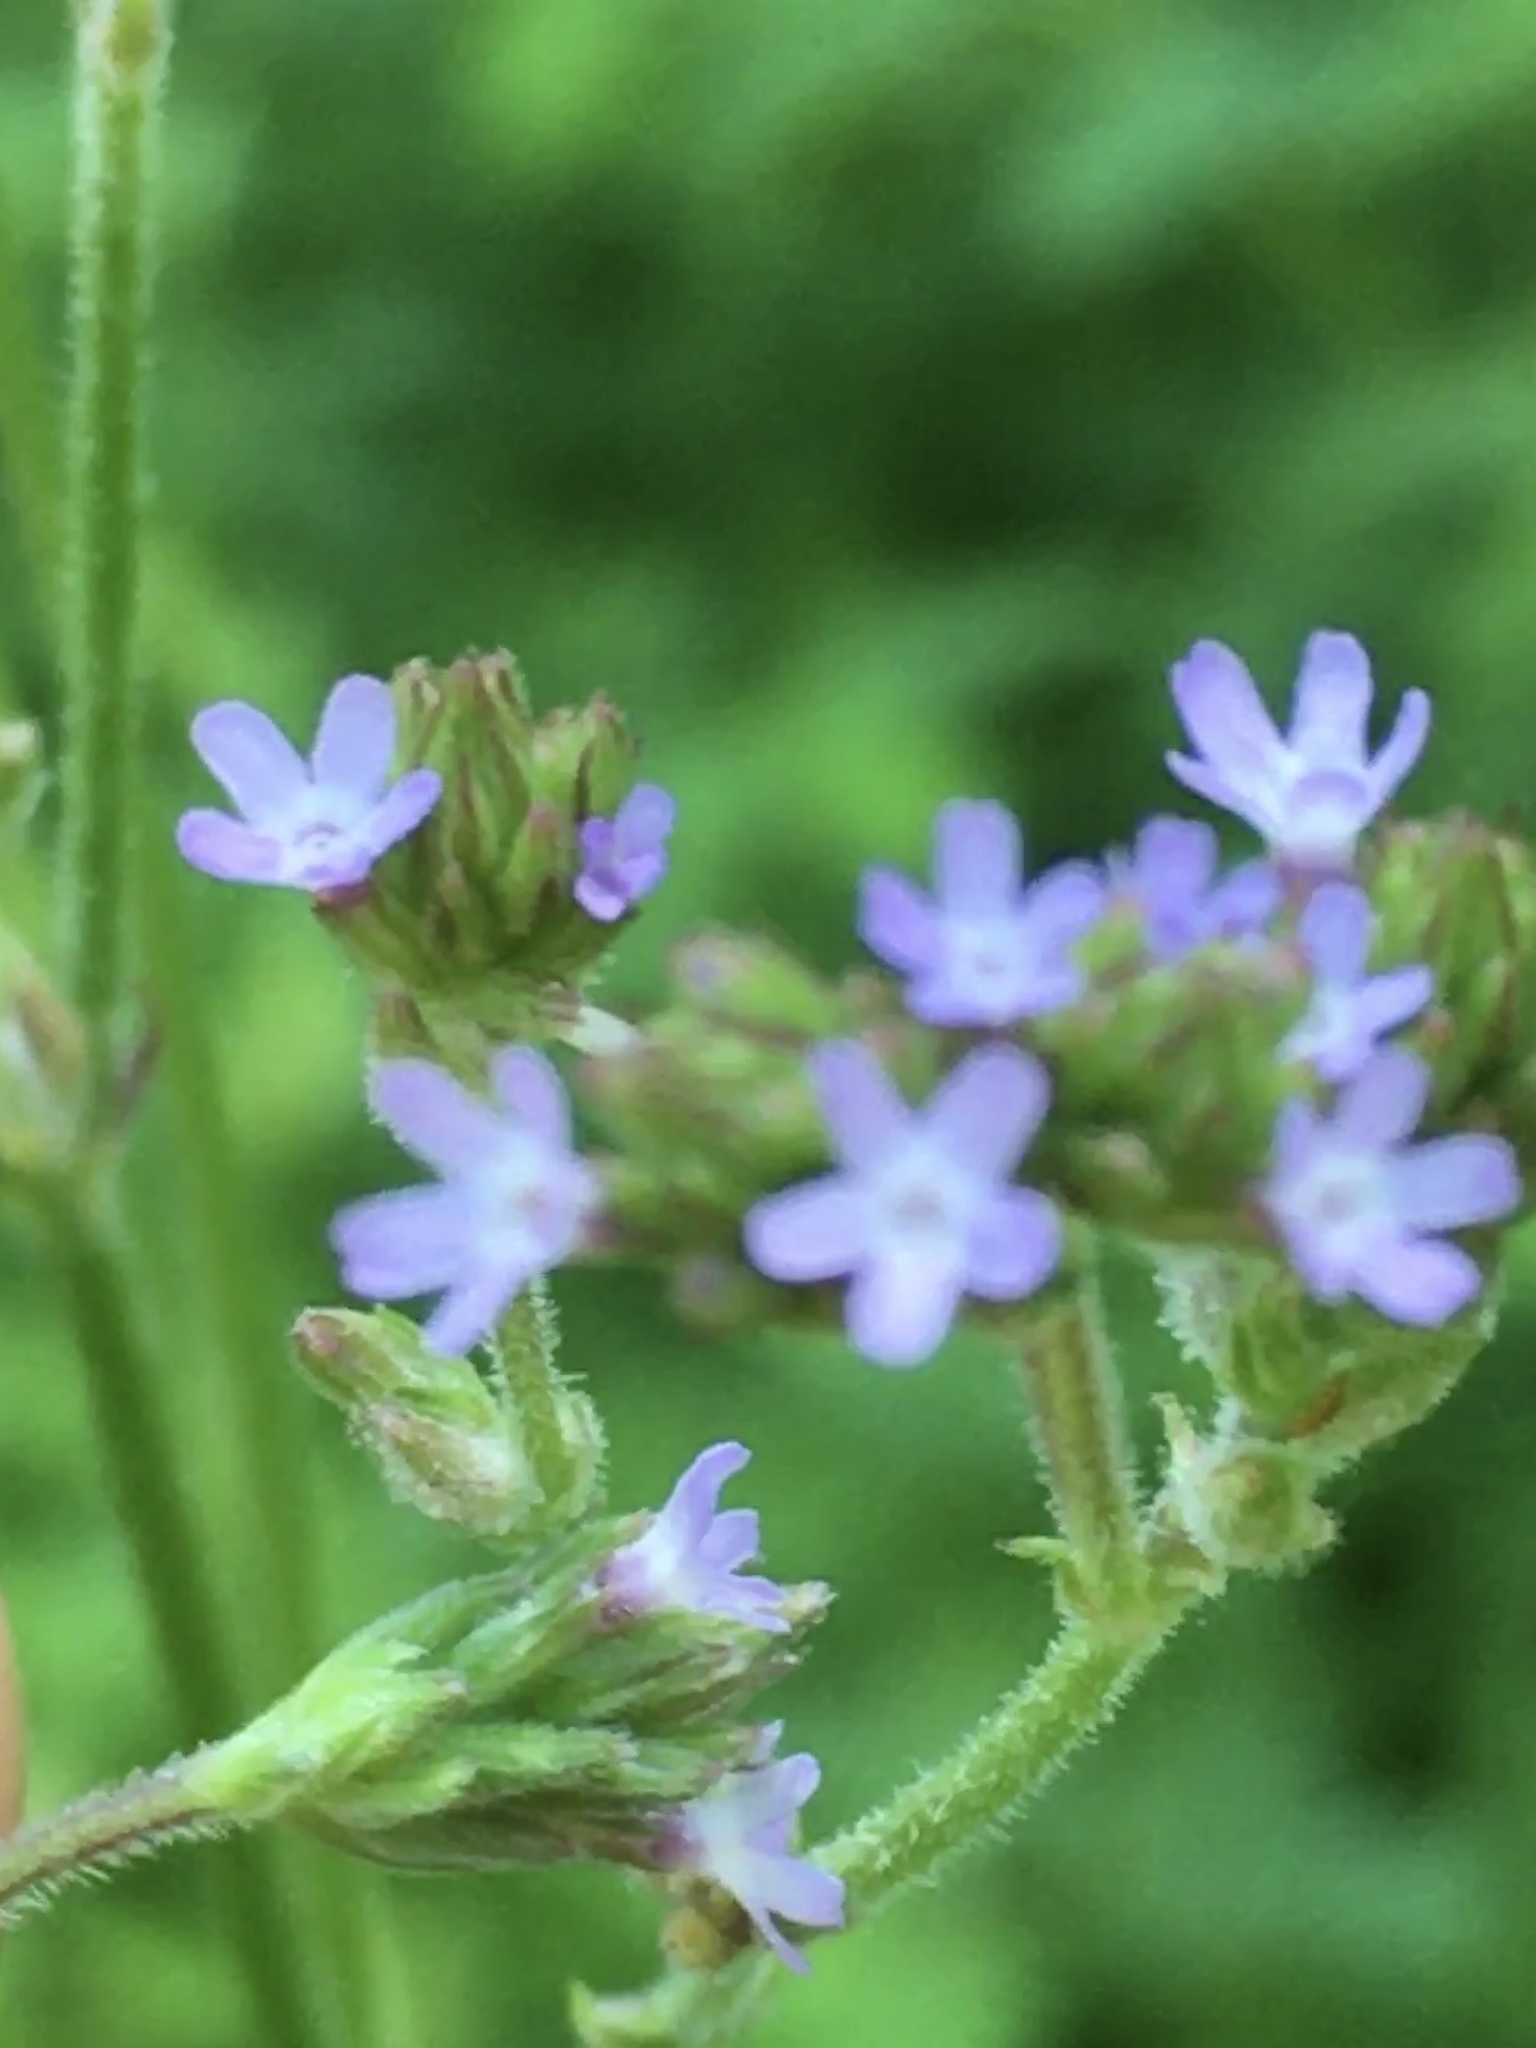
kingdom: Plantae
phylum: Tracheophyta
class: Magnoliopsida
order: Lamiales
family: Verbenaceae
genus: Verbena
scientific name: Verbena brasiliensis
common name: Brazilian vervain
